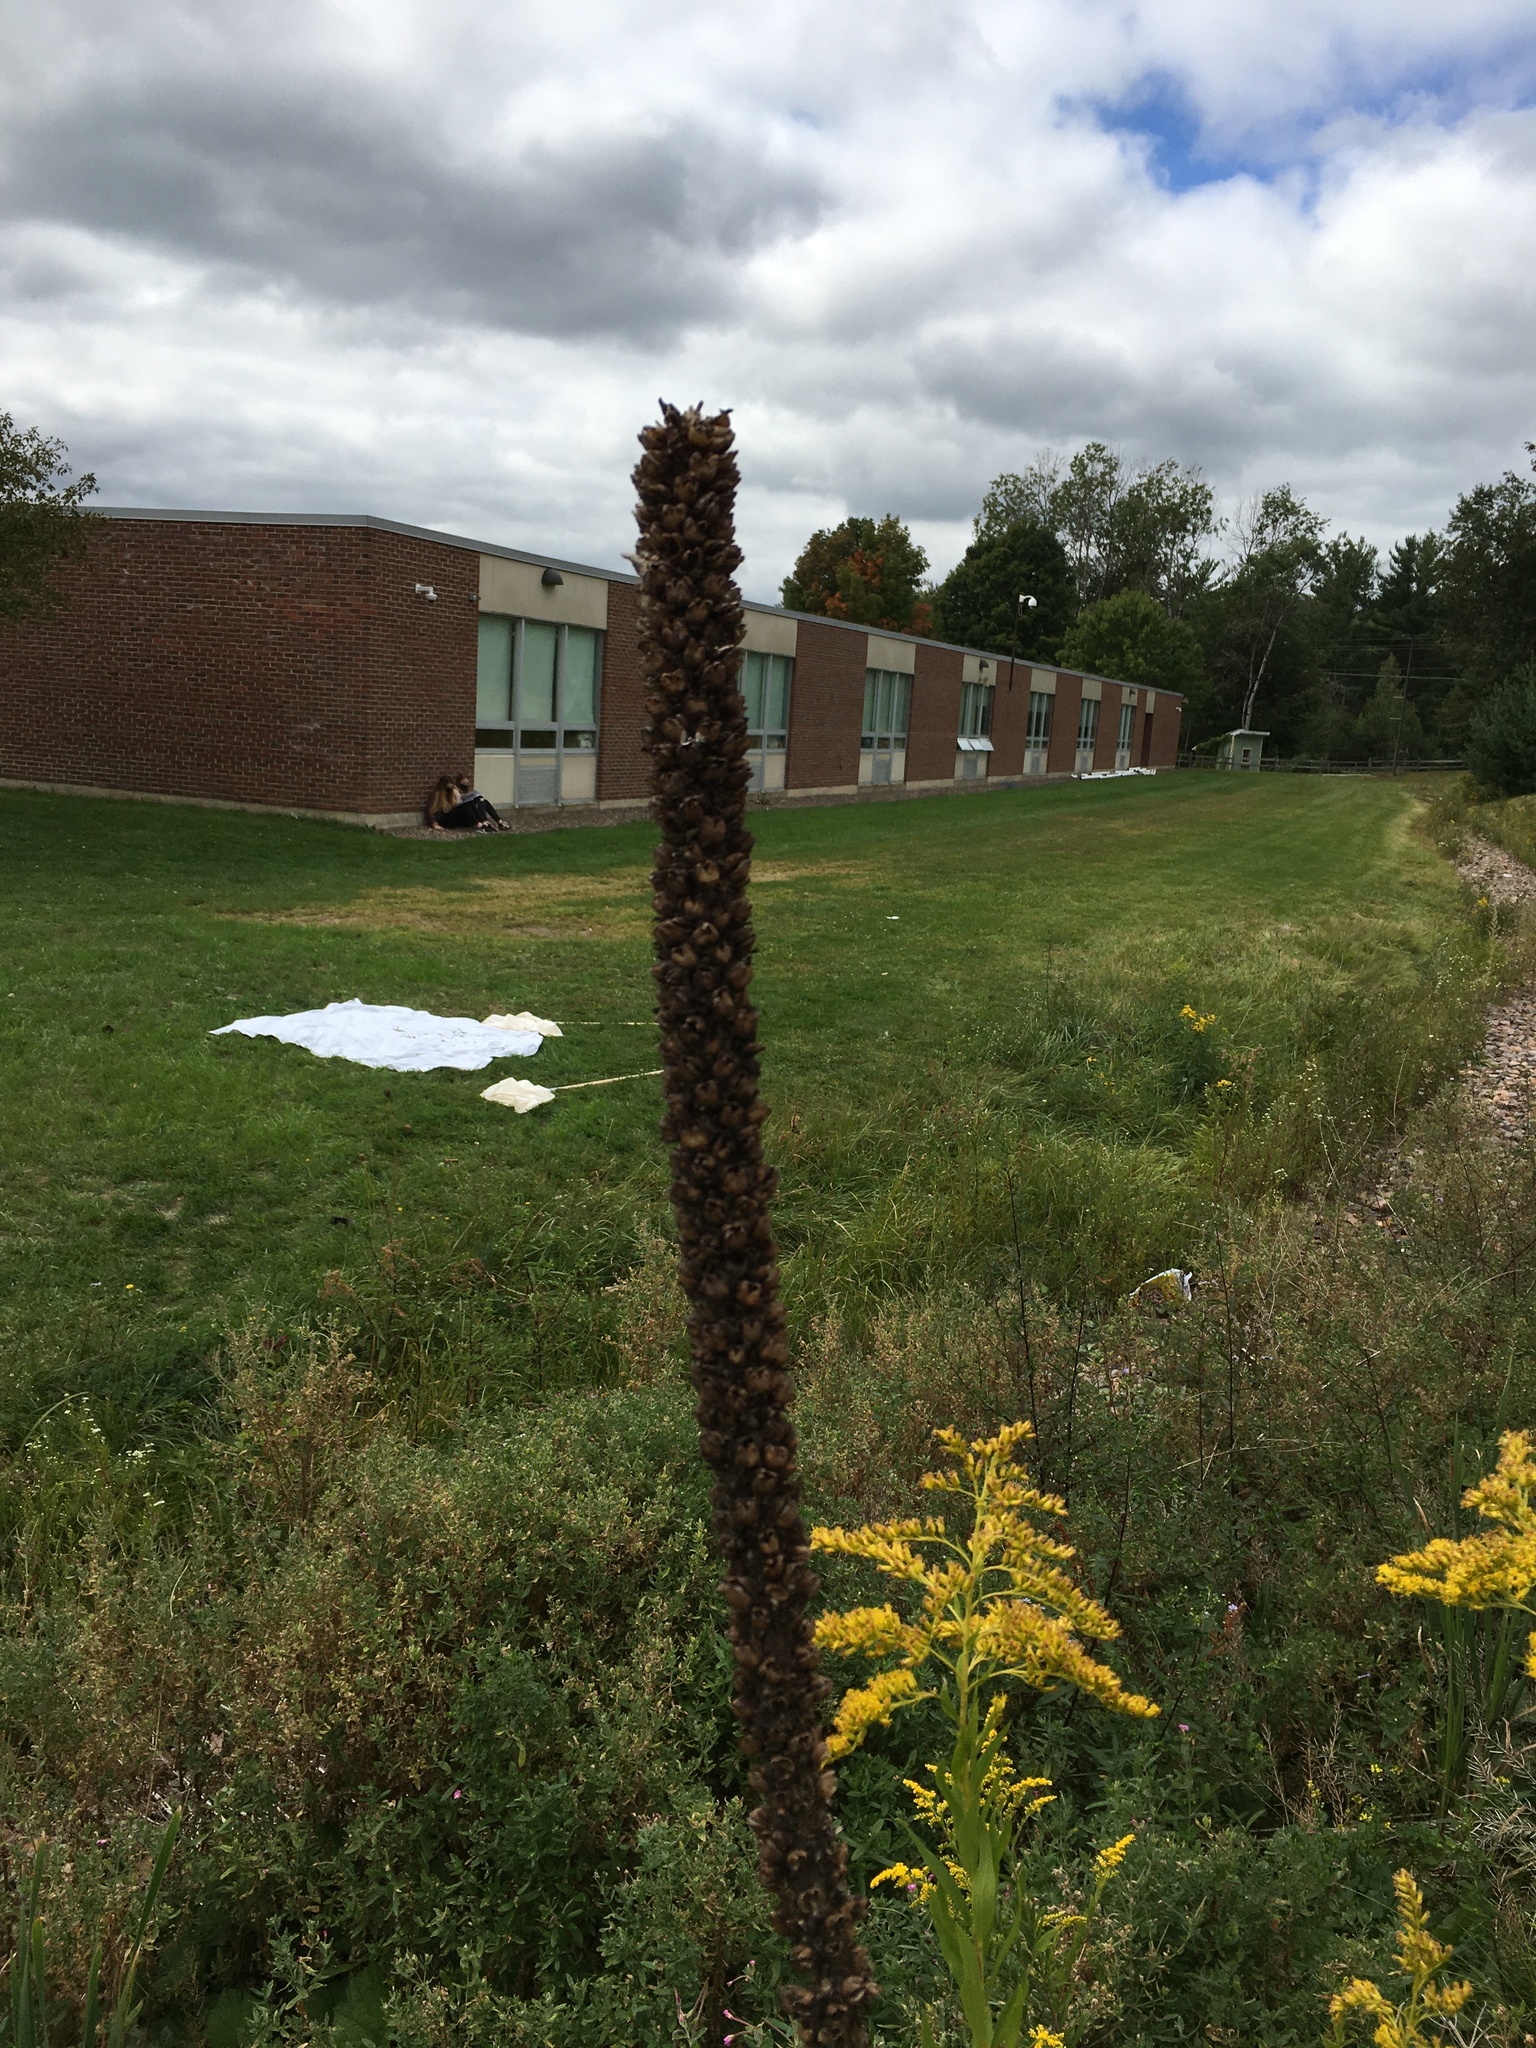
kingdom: Plantae
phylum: Tracheophyta
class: Magnoliopsida
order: Lamiales
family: Scrophulariaceae
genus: Verbascum
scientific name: Verbascum thapsus
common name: Common mullein
